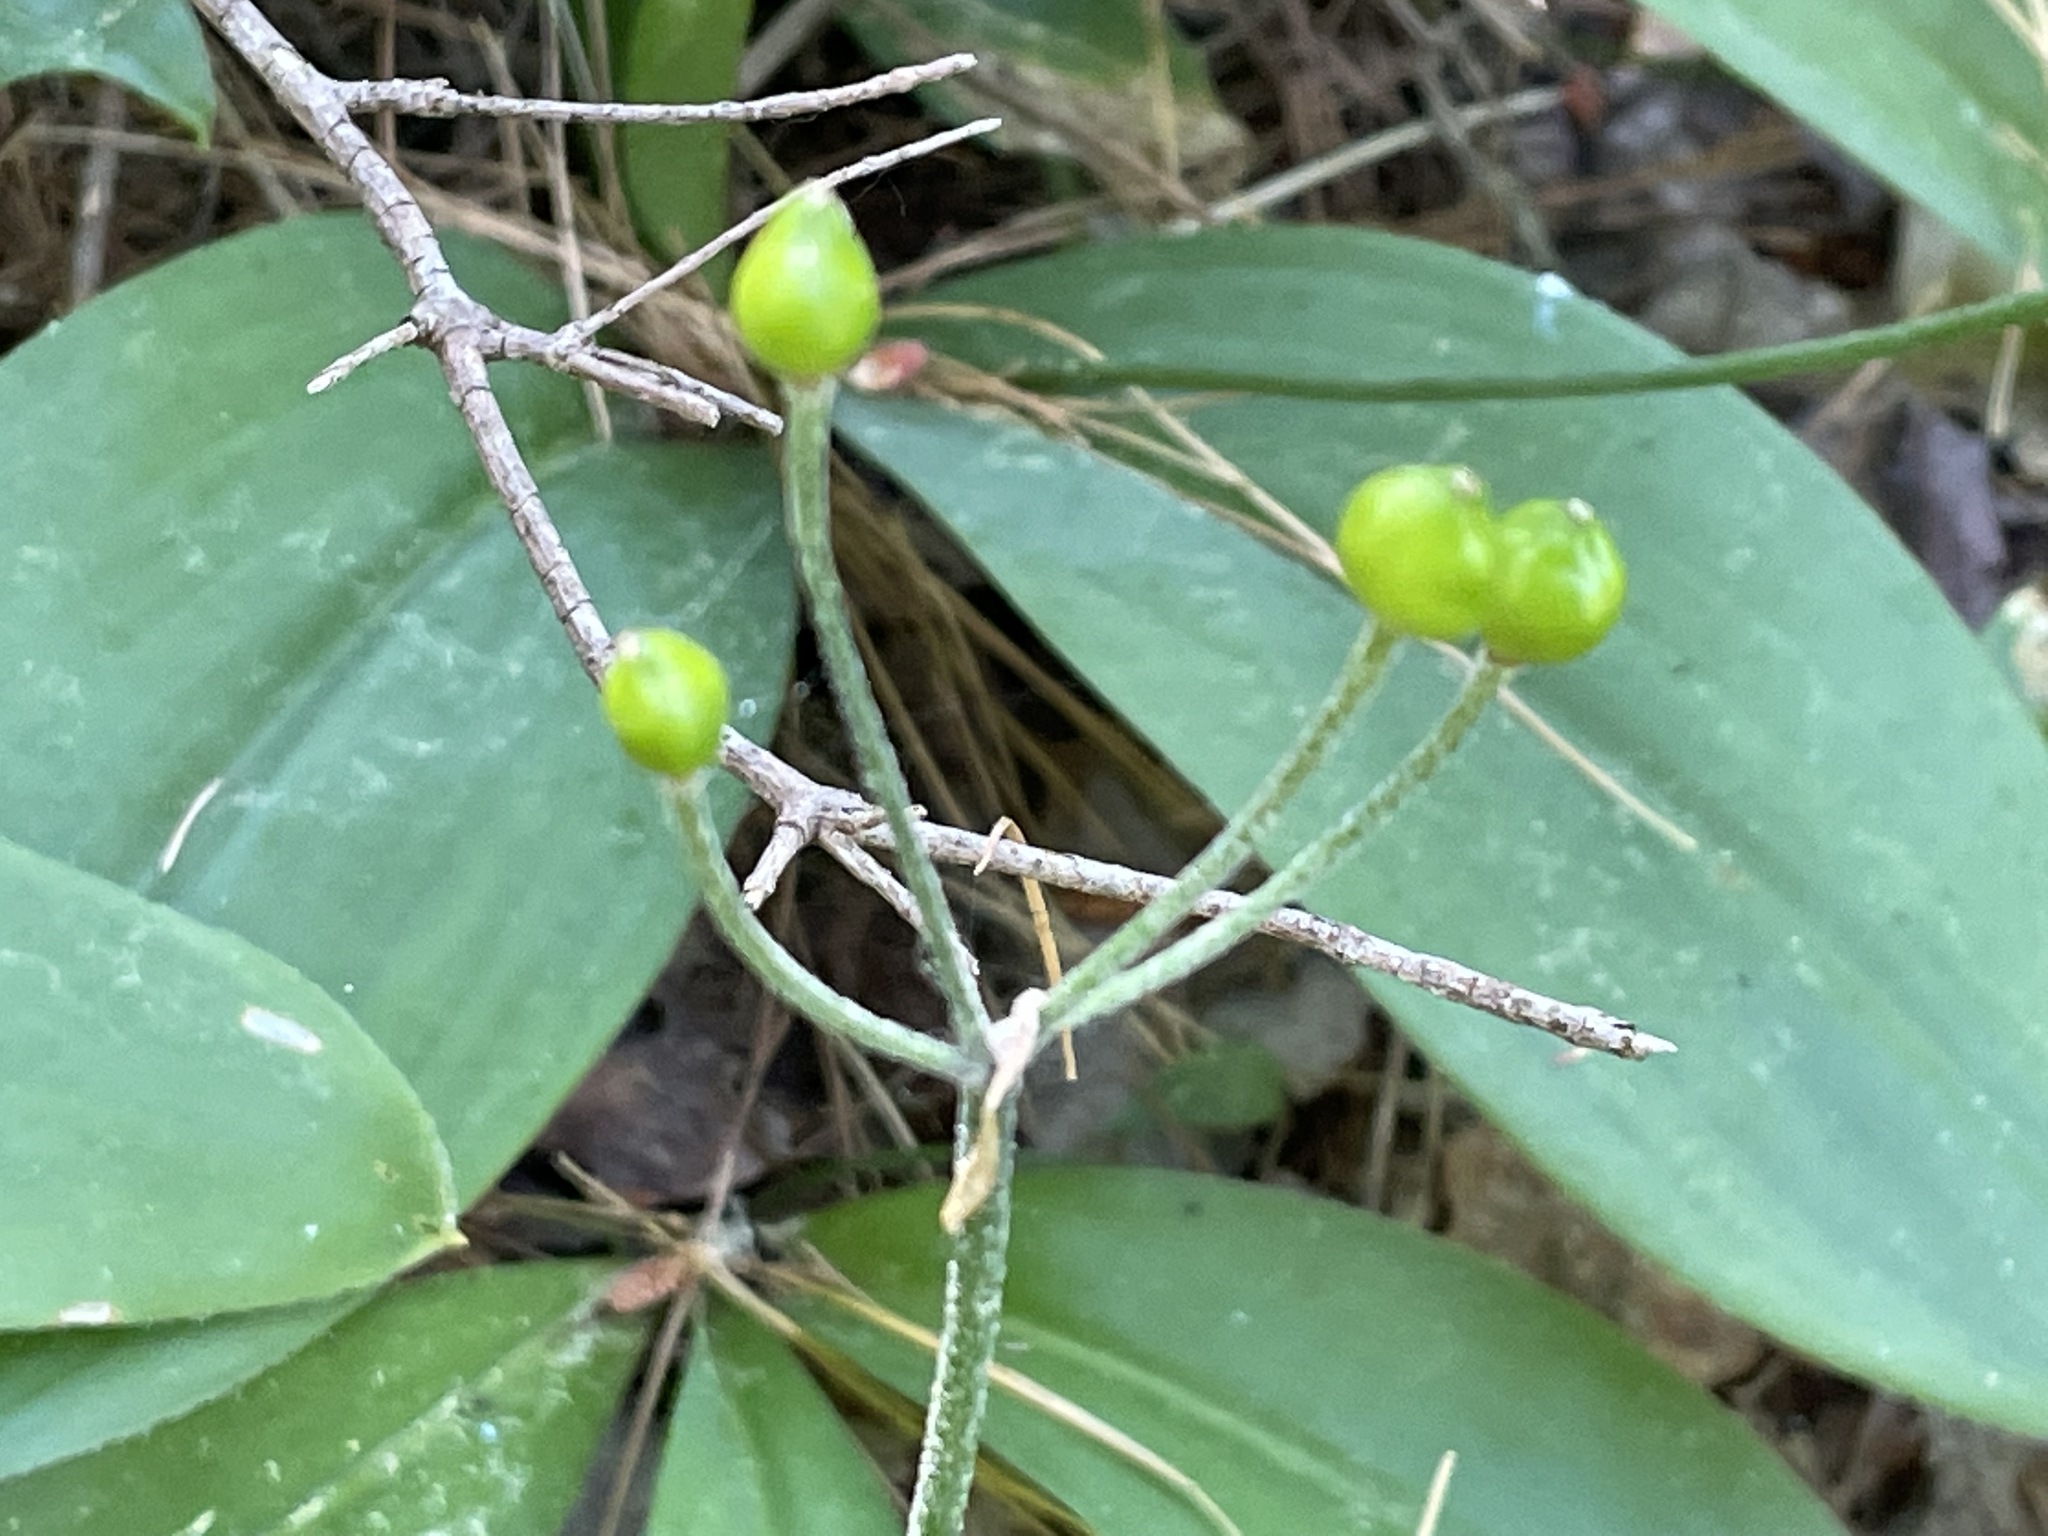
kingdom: Plantae
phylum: Tracheophyta
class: Liliopsida
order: Liliales
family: Liliaceae
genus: Clintonia
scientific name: Clintonia borealis
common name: Yellow clintonia
